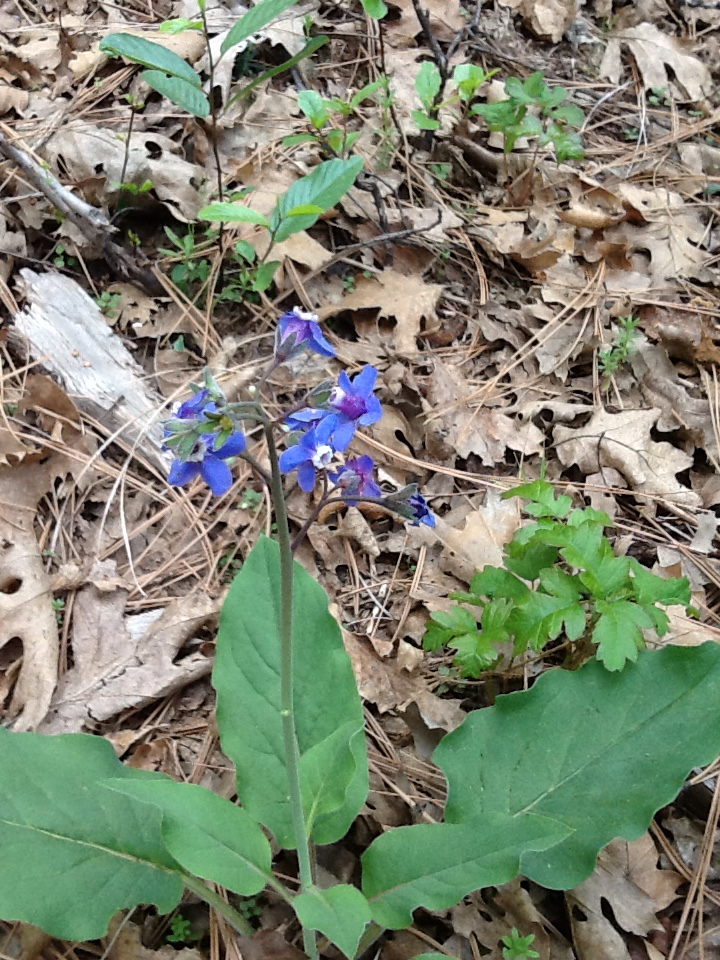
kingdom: Plantae
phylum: Tracheophyta
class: Magnoliopsida
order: Boraginales
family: Boraginaceae
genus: Adelinia
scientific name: Adelinia grande
